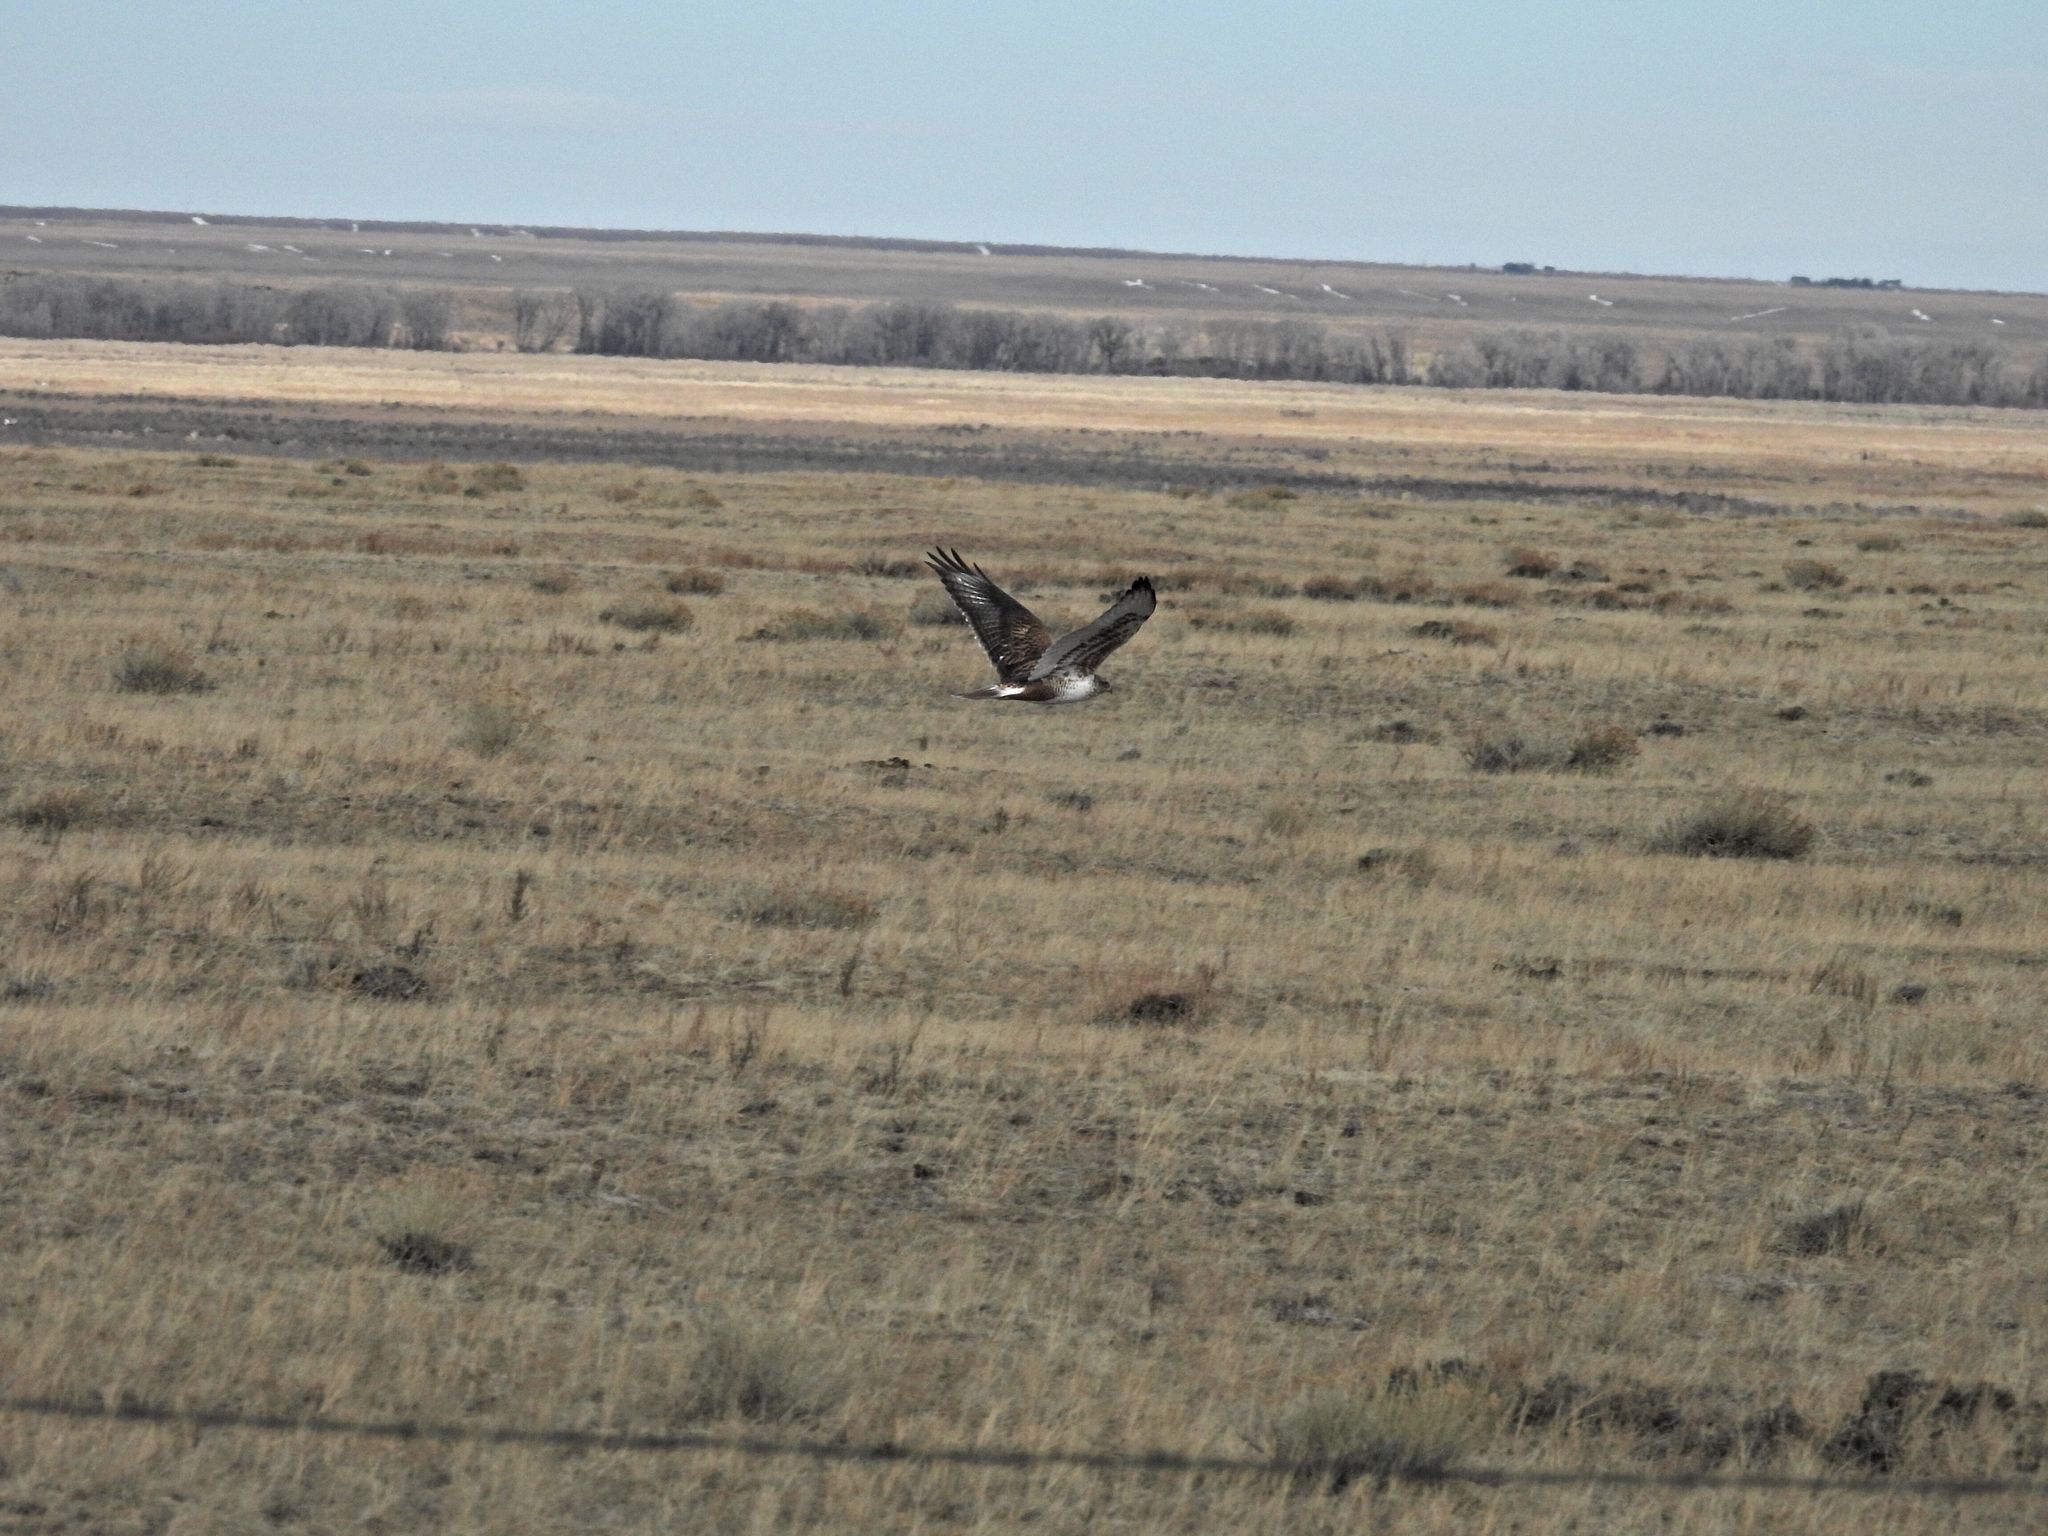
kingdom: Animalia
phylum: Chordata
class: Aves
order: Accipitriformes
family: Accipitridae
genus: Buteo
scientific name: Buteo regalis
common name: Ferruginous hawk
